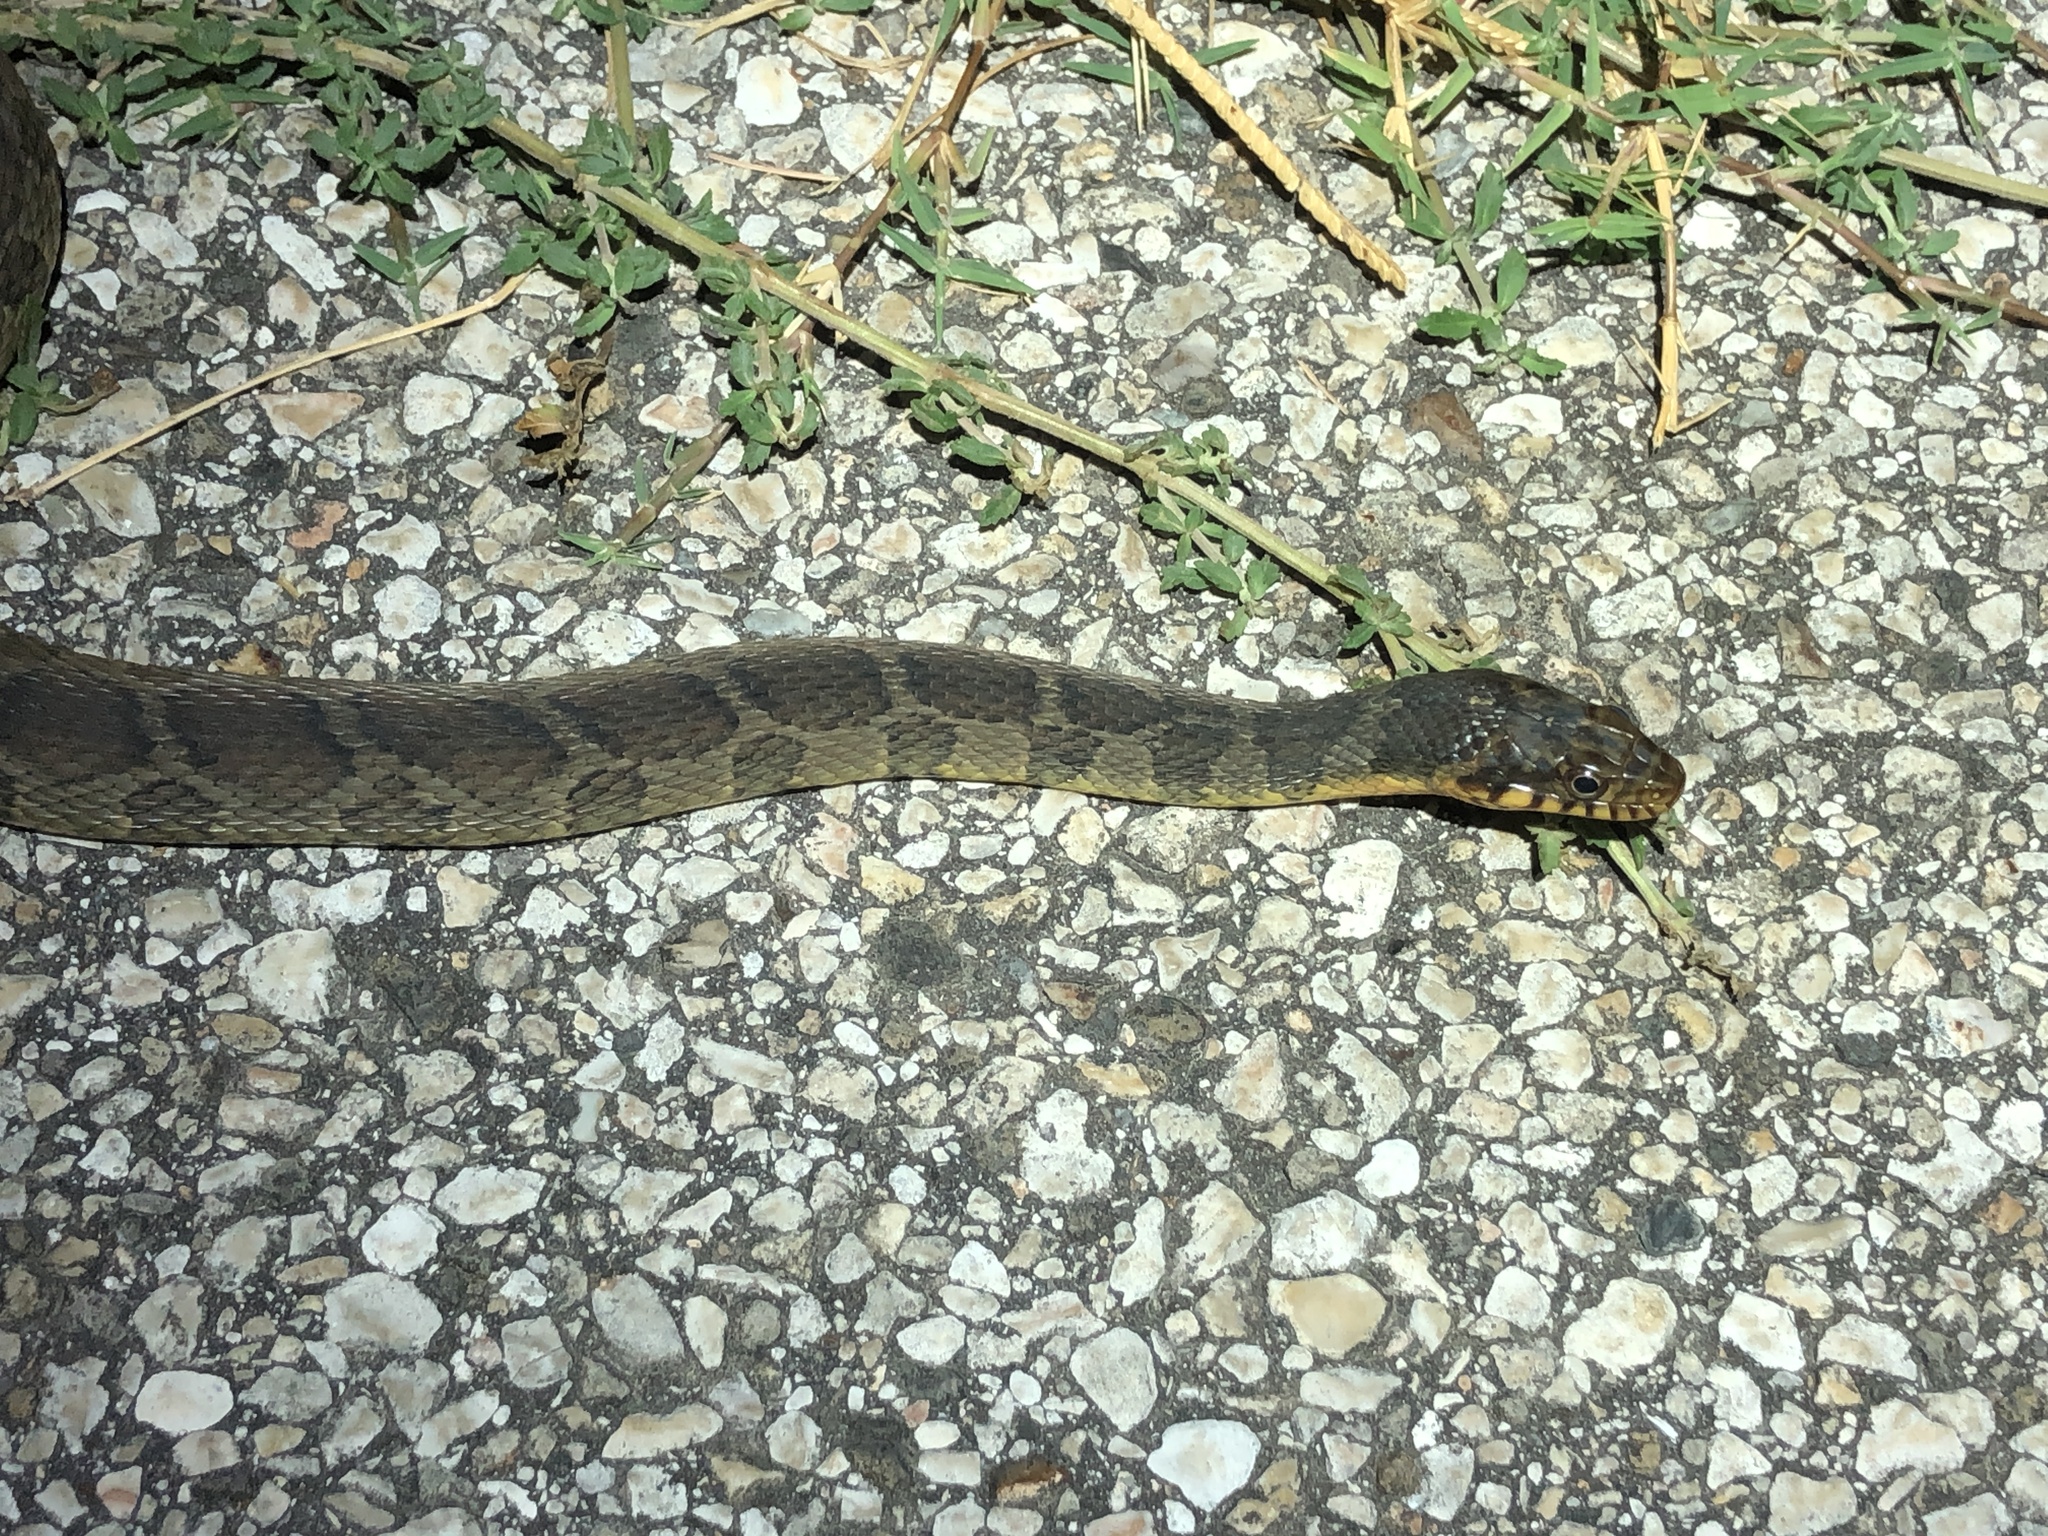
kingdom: Animalia
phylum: Chordata
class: Squamata
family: Colubridae
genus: Nerodia
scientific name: Nerodia erythrogaster
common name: Plainbelly water snake
